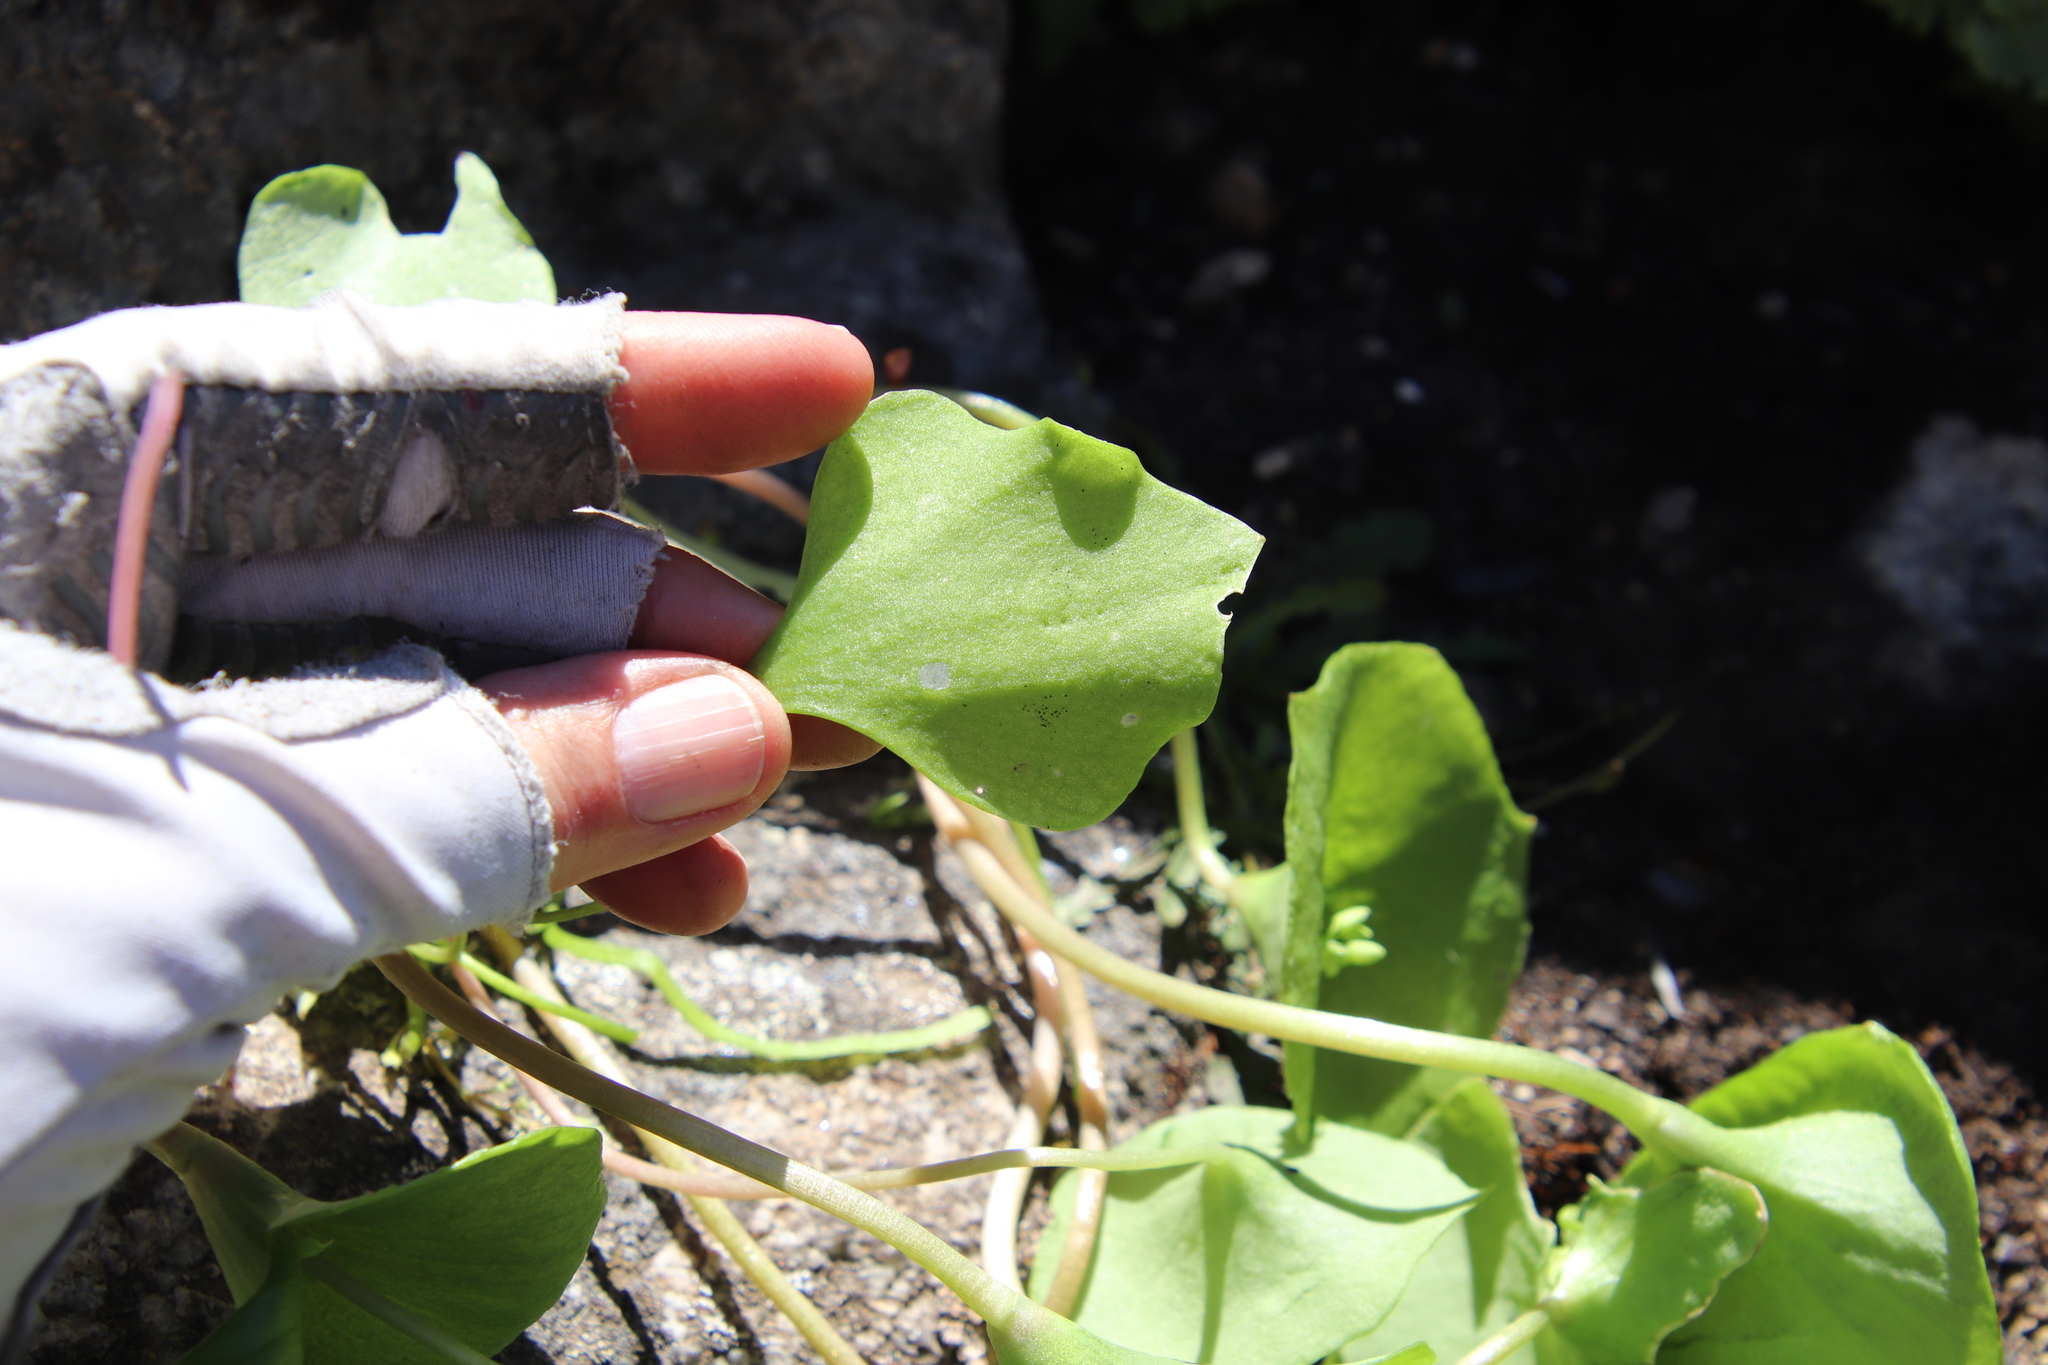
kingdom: Plantae
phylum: Tracheophyta
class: Magnoliopsida
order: Caryophyllales
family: Montiaceae
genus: Claytonia
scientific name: Claytonia perfoliata
